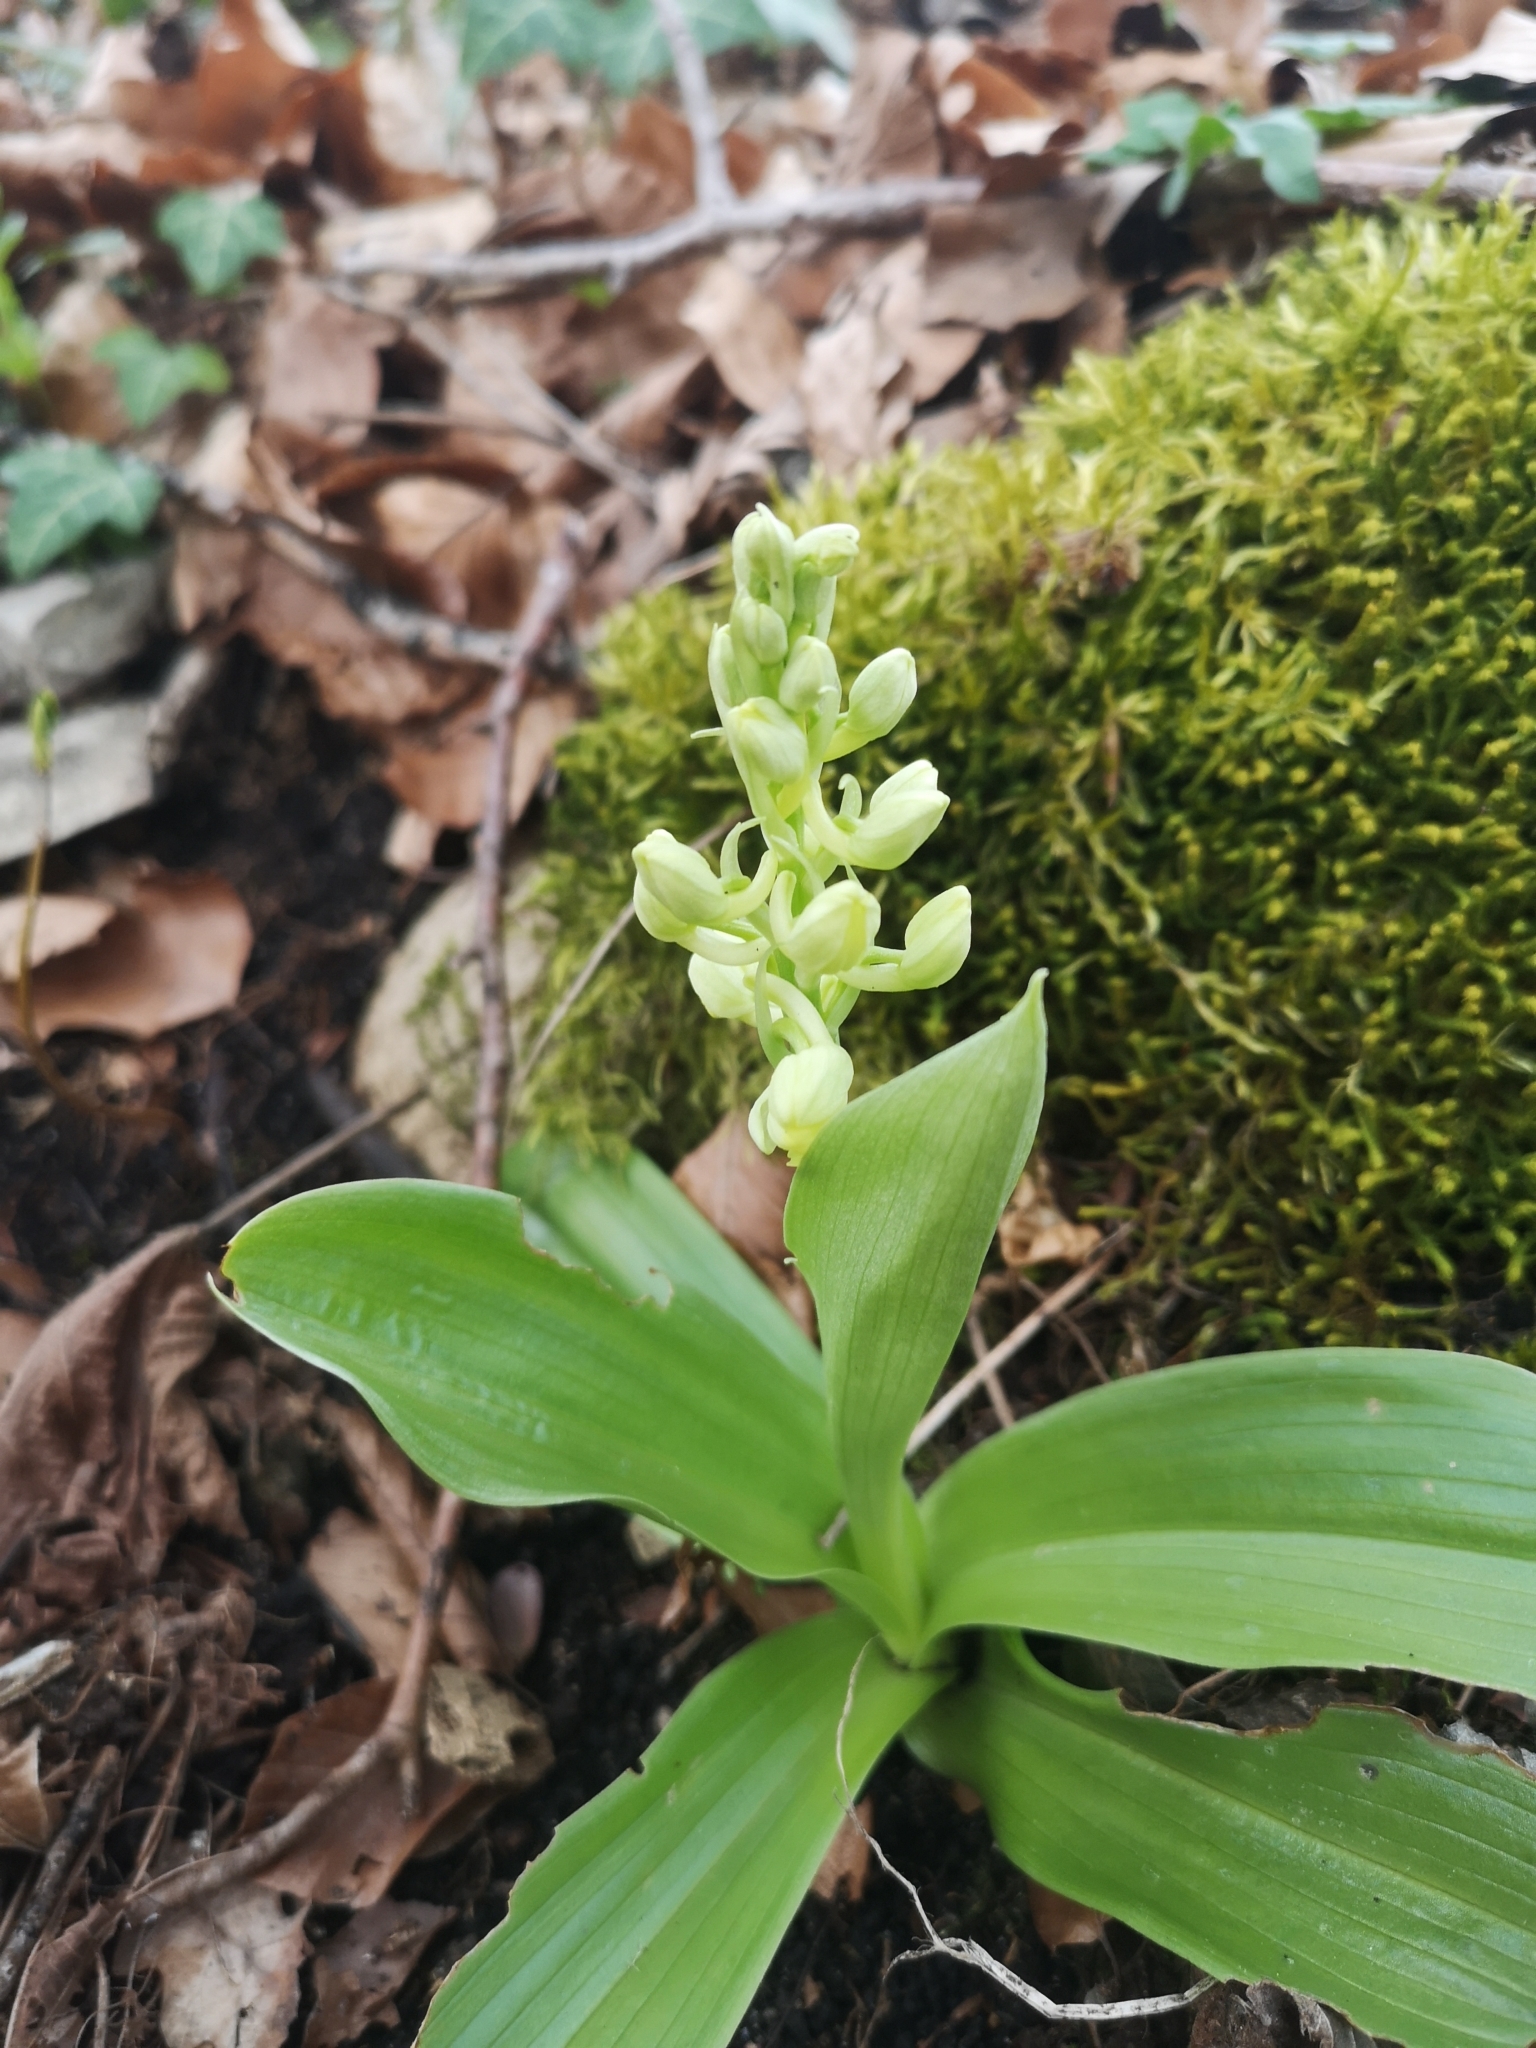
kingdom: Plantae
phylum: Tracheophyta
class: Liliopsida
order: Asparagales
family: Orchidaceae
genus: Orchis
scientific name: Orchis pallens
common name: Pale-flowered orchid
